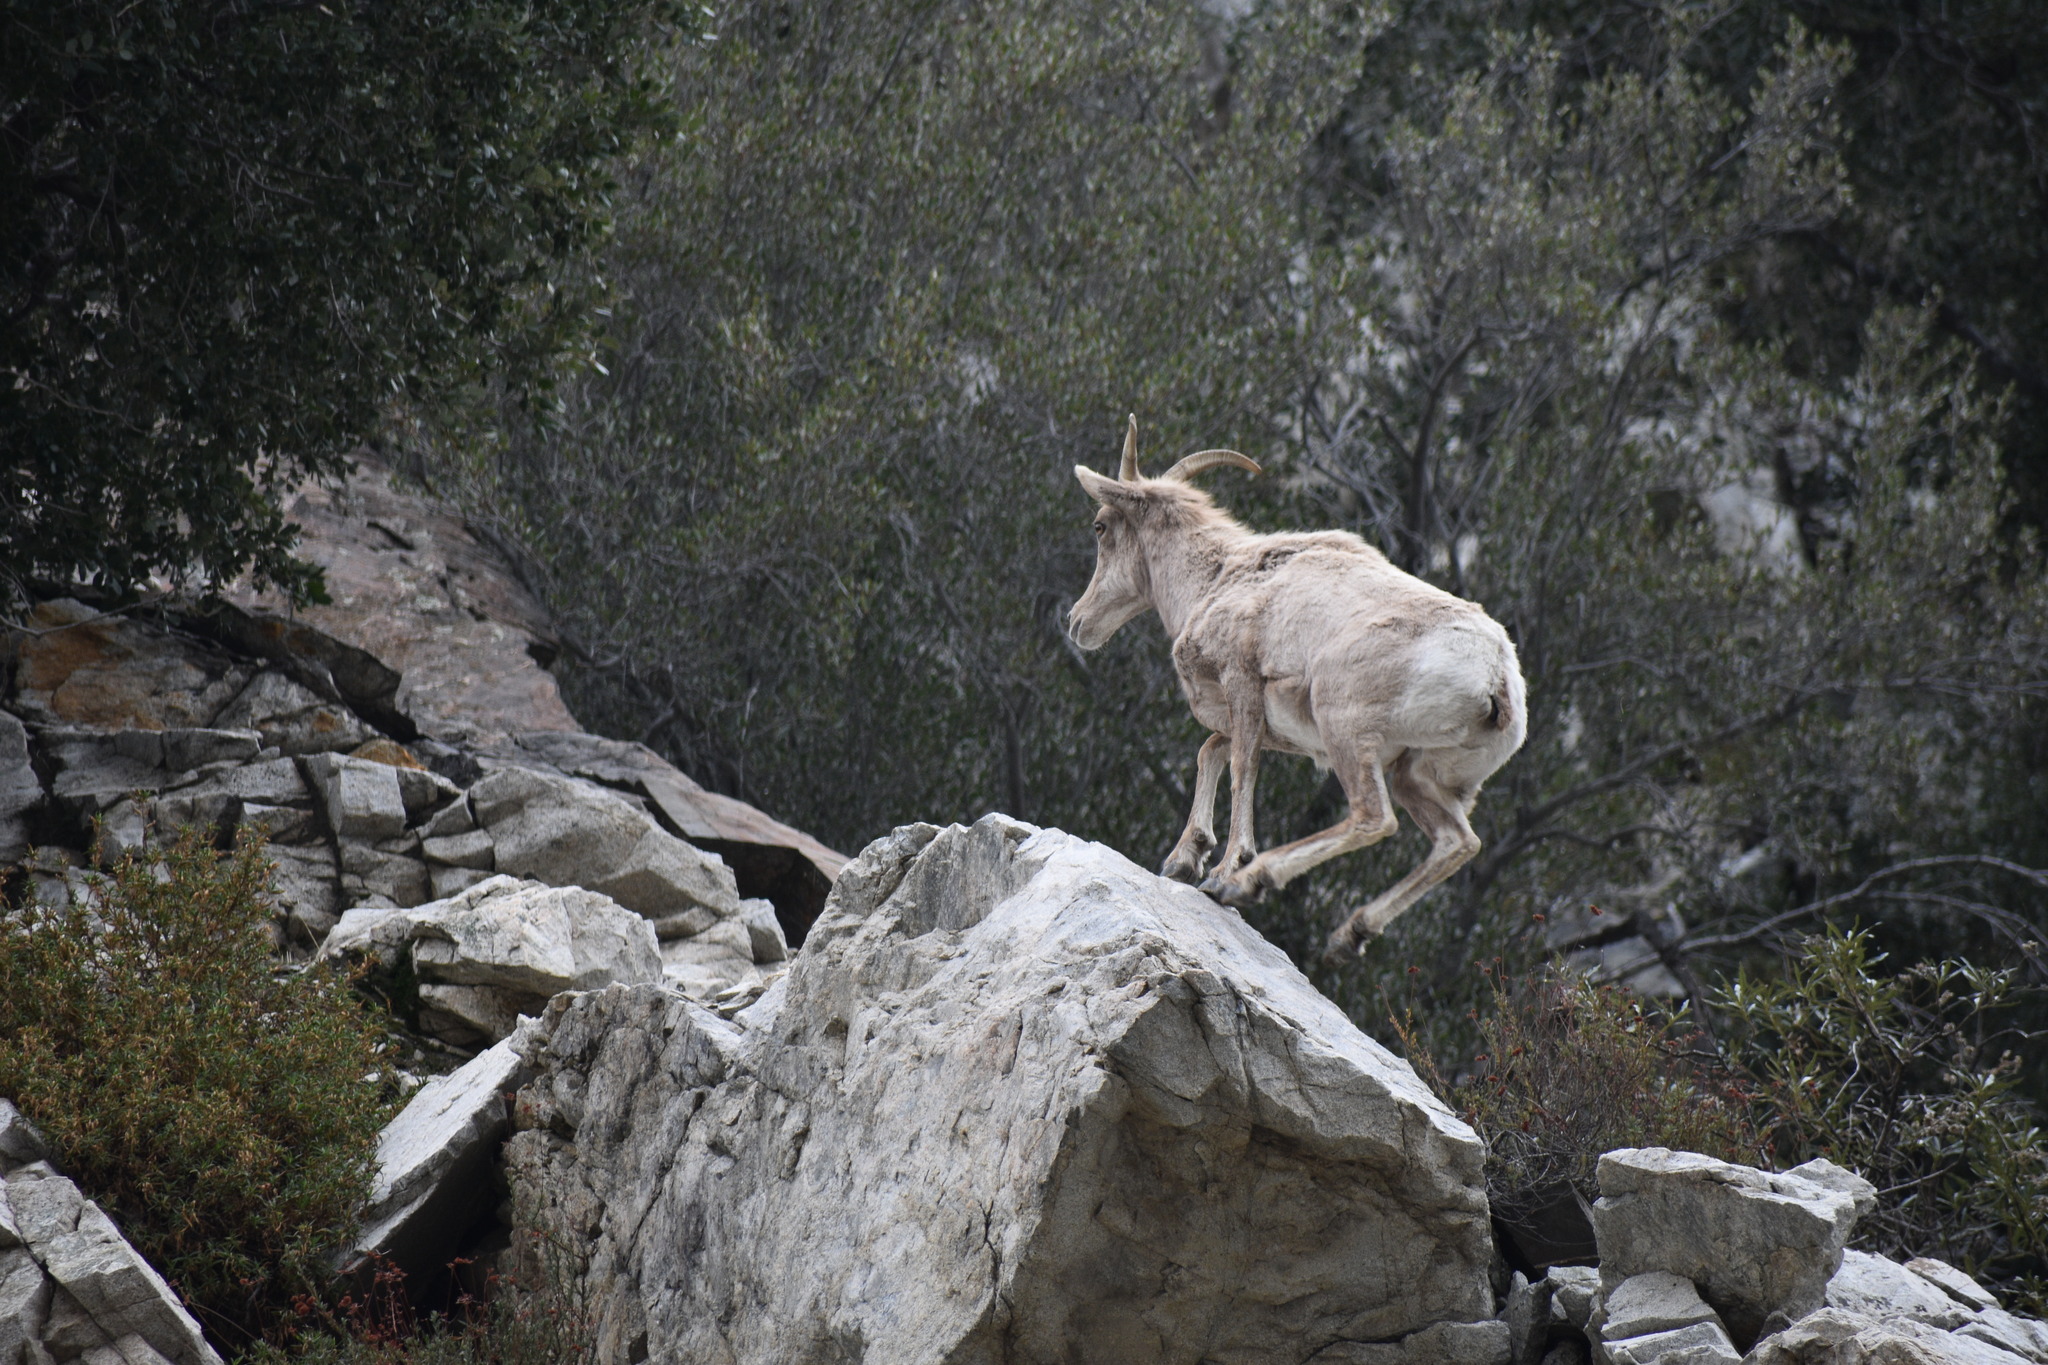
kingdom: Animalia
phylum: Chordata
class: Mammalia
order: Artiodactyla
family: Bovidae
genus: Ovis
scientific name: Ovis canadensis
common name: Bighorn sheep
